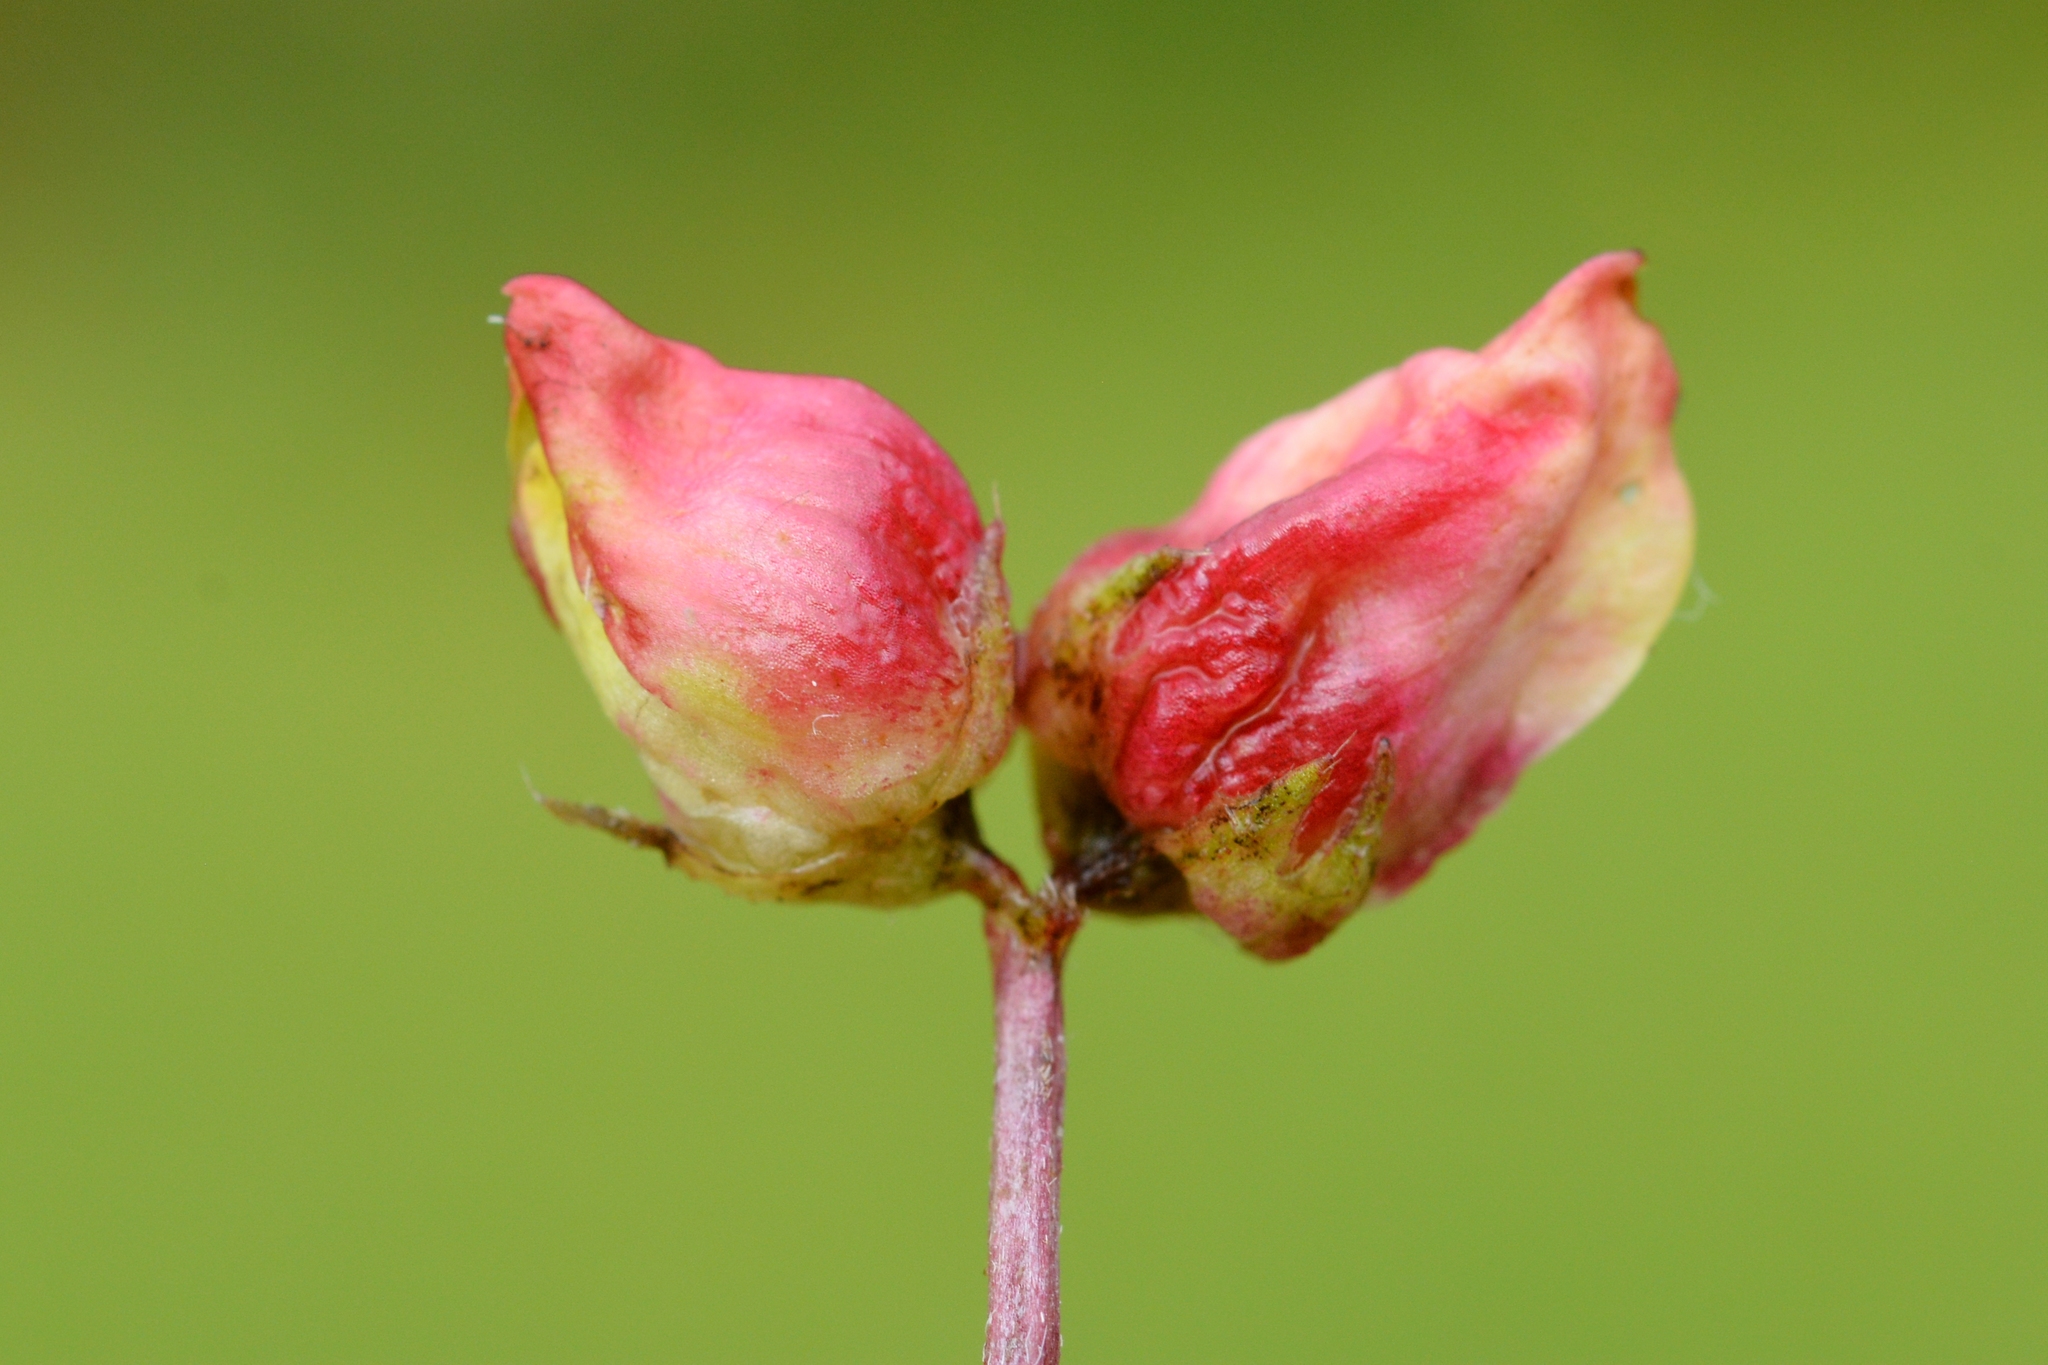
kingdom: Animalia
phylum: Arthropoda
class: Insecta
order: Diptera
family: Cecidomyiidae
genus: Contarinia
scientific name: Contarinia loti
